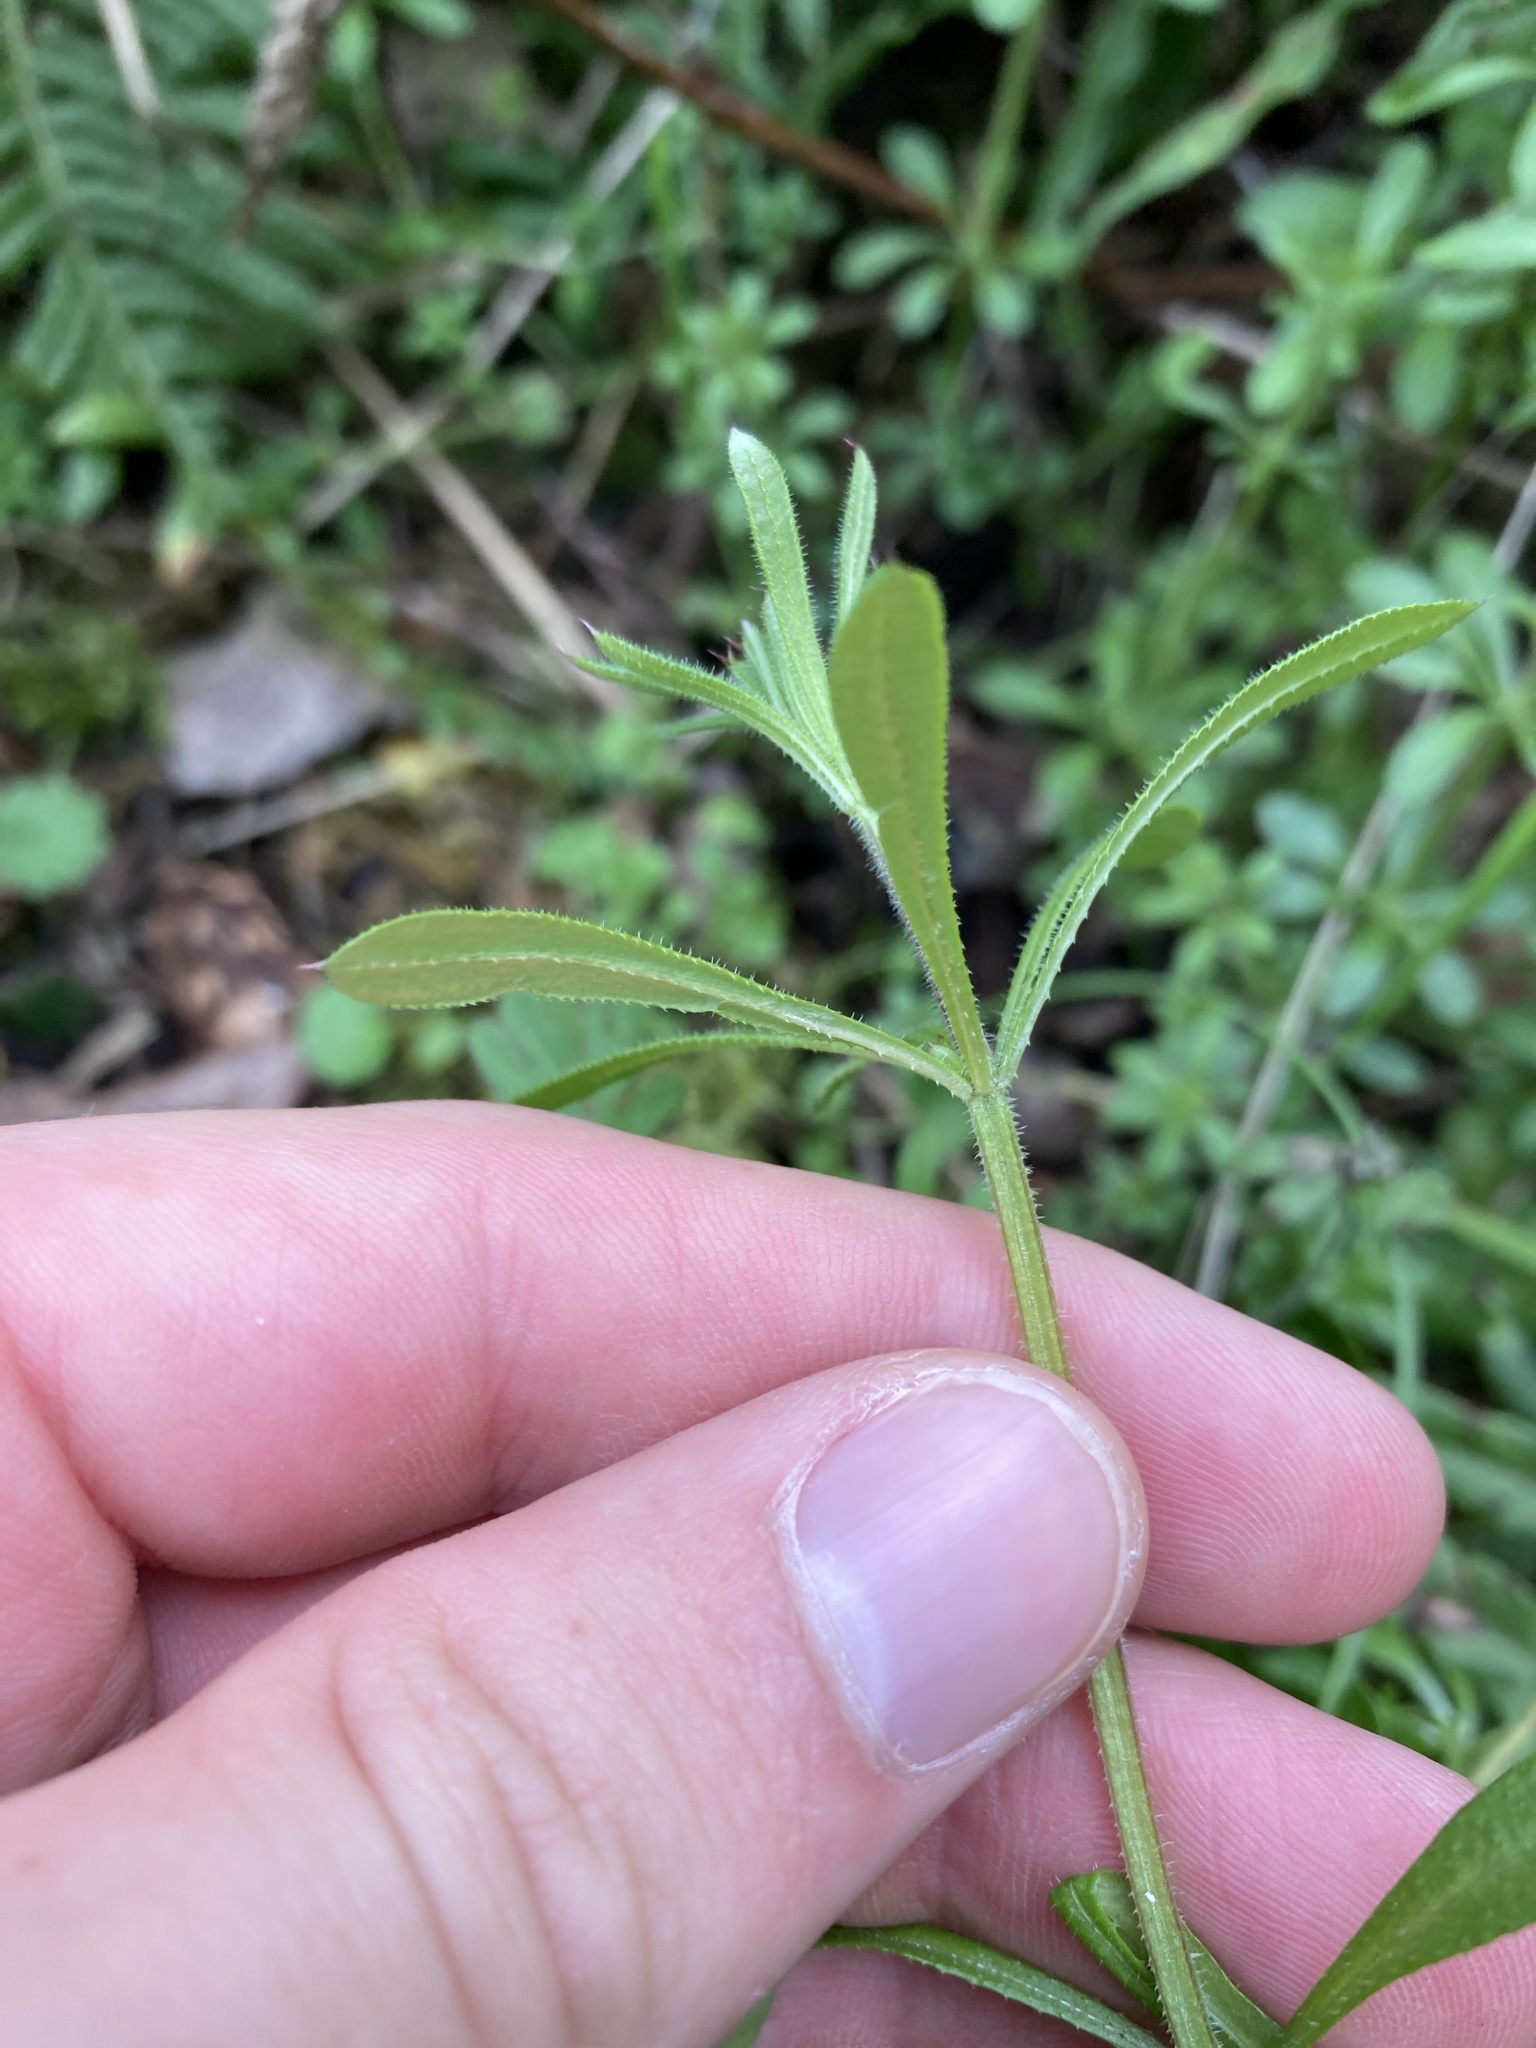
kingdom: Plantae
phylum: Tracheophyta
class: Magnoliopsida
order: Gentianales
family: Rubiaceae
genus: Galium
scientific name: Galium aparine
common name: Cleavers
